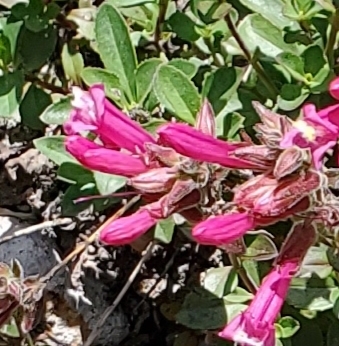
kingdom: Plantae
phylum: Tracheophyta
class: Magnoliopsida
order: Lamiales
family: Plantaginaceae
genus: Penstemon
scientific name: Penstemon newberryi
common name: Mountain-pride
